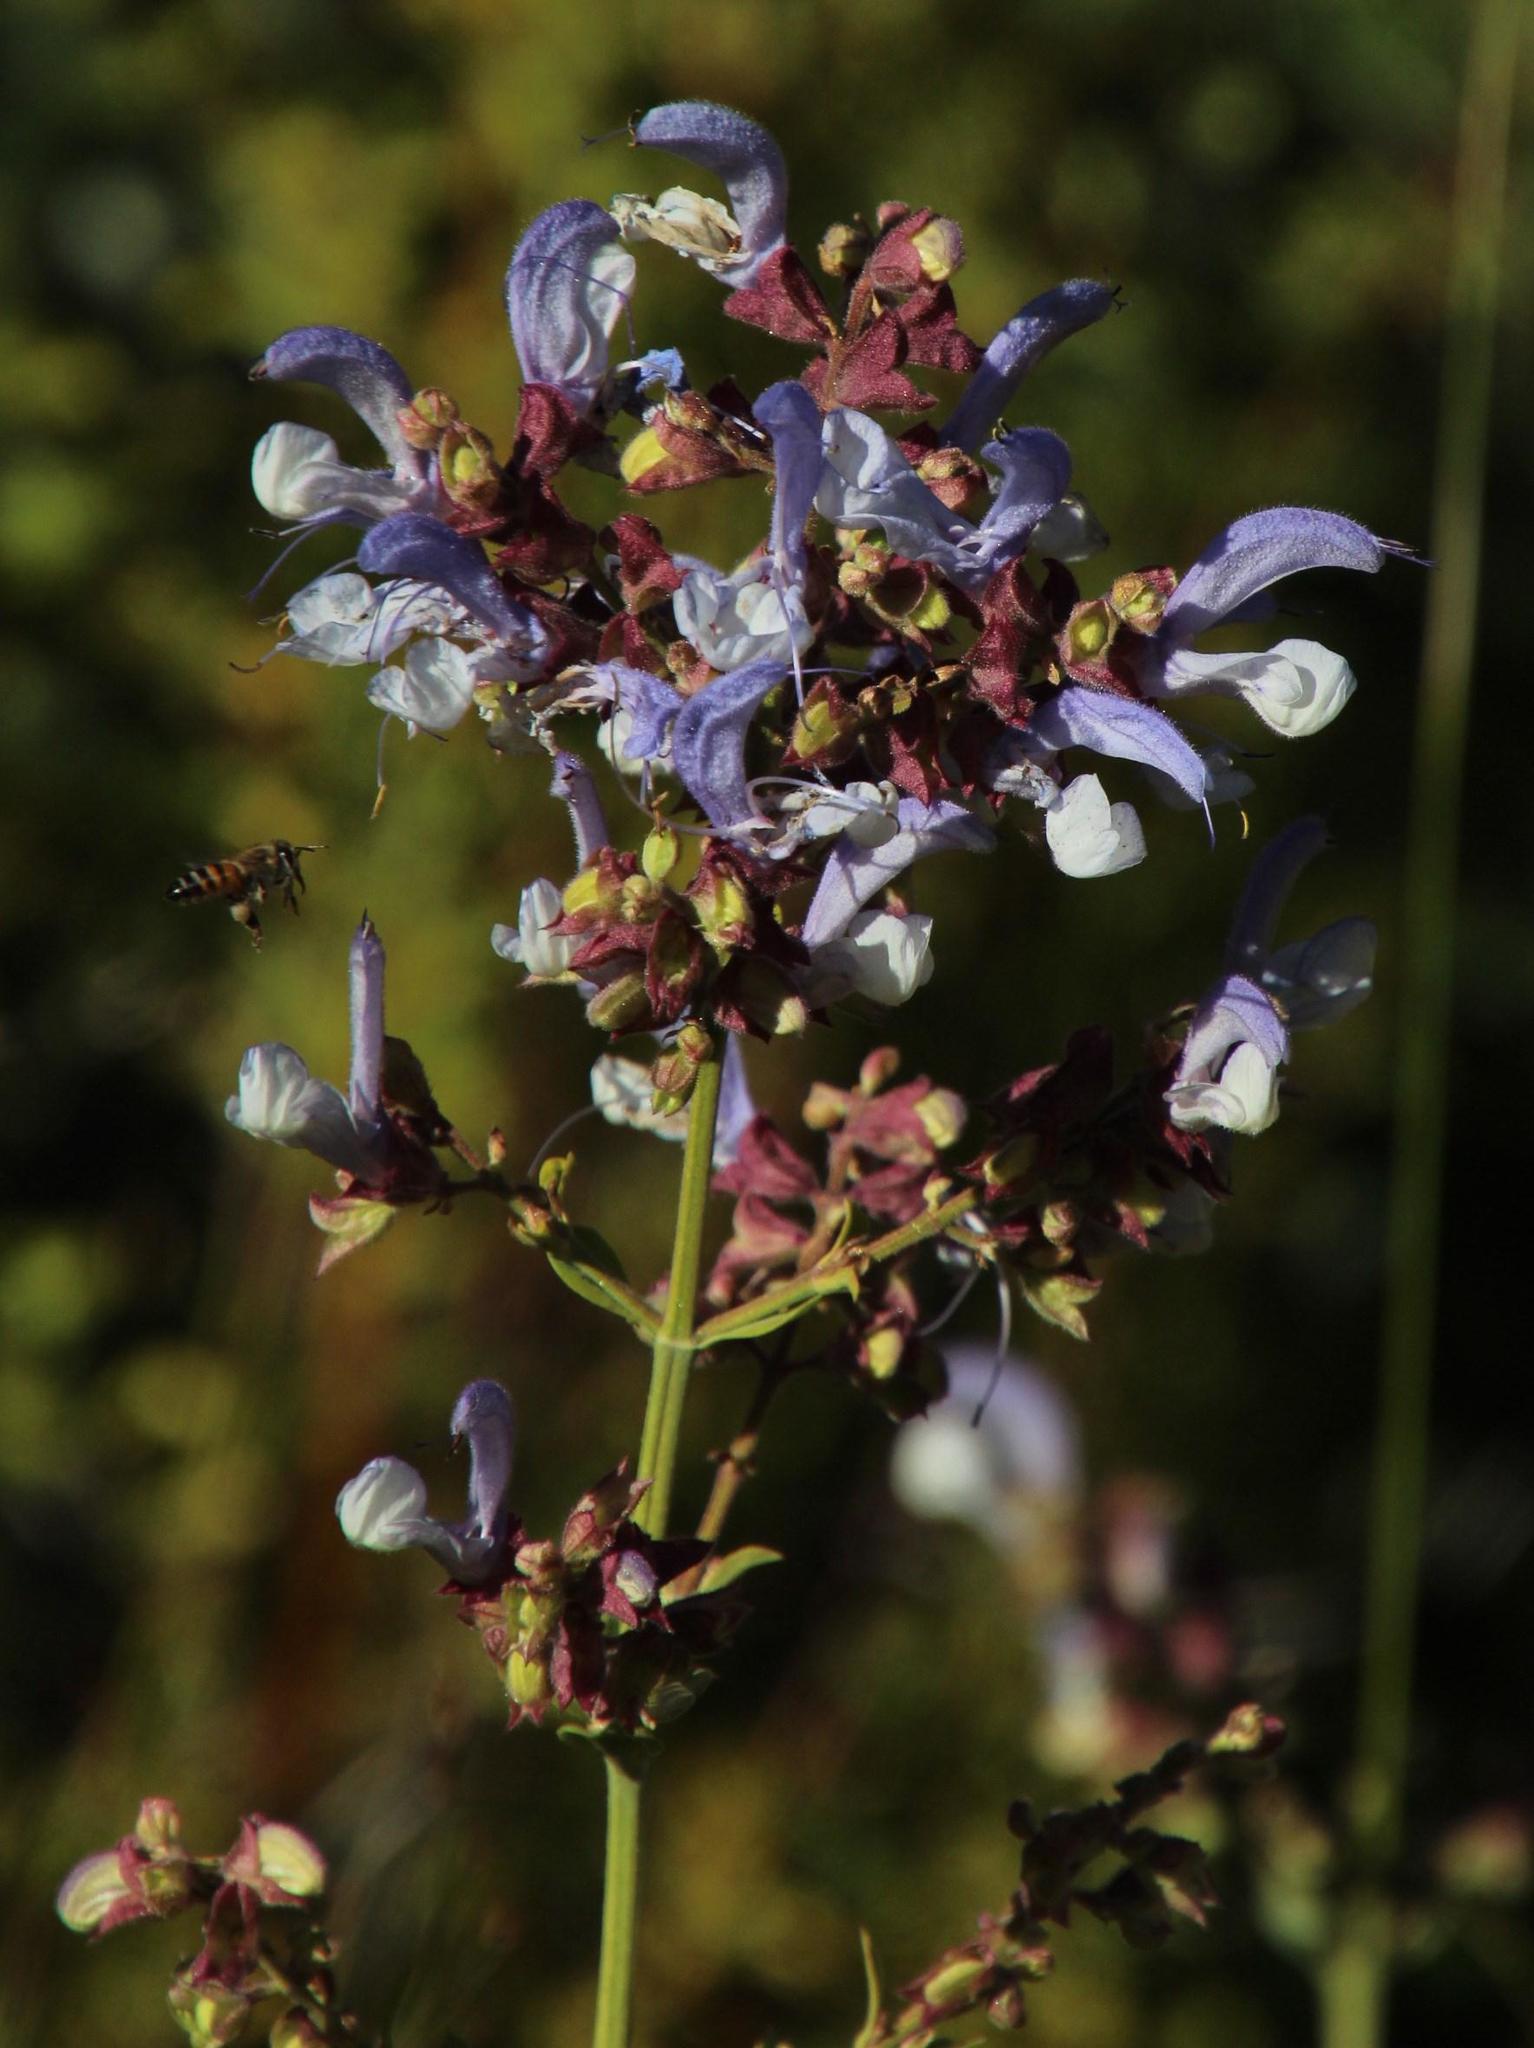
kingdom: Plantae
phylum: Tracheophyta
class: Magnoliopsida
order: Lamiales
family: Lamiaceae
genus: Salvia
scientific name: Salvia chamelaeagnea
